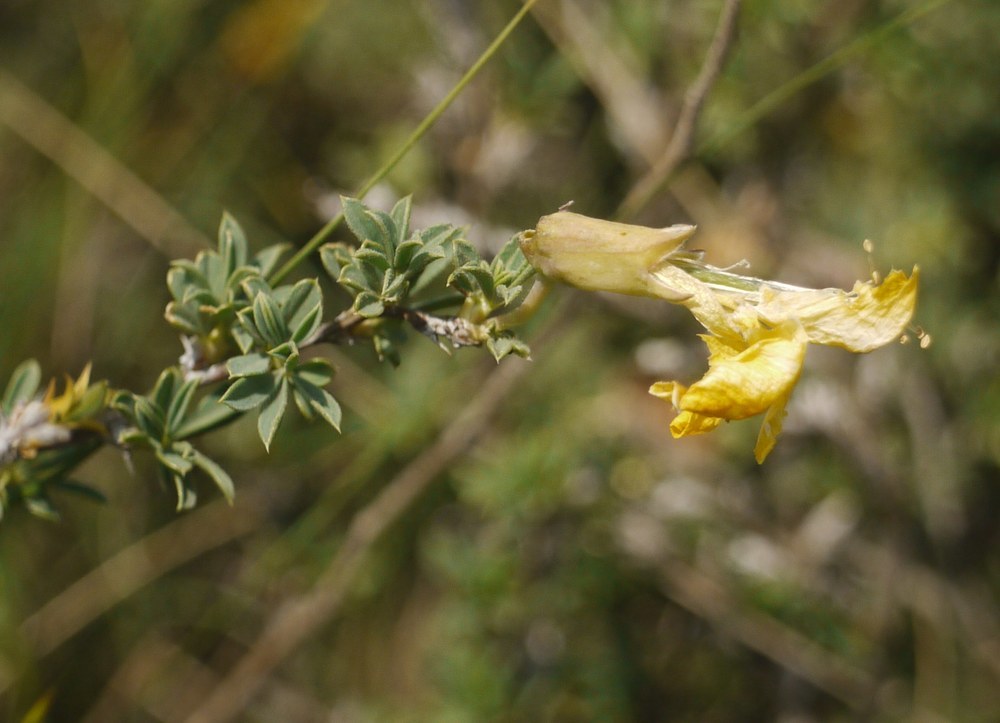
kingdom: Plantae
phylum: Tracheophyta
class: Magnoliopsida
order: Fabales
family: Fabaceae
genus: Caragana
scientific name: Caragana scythica
